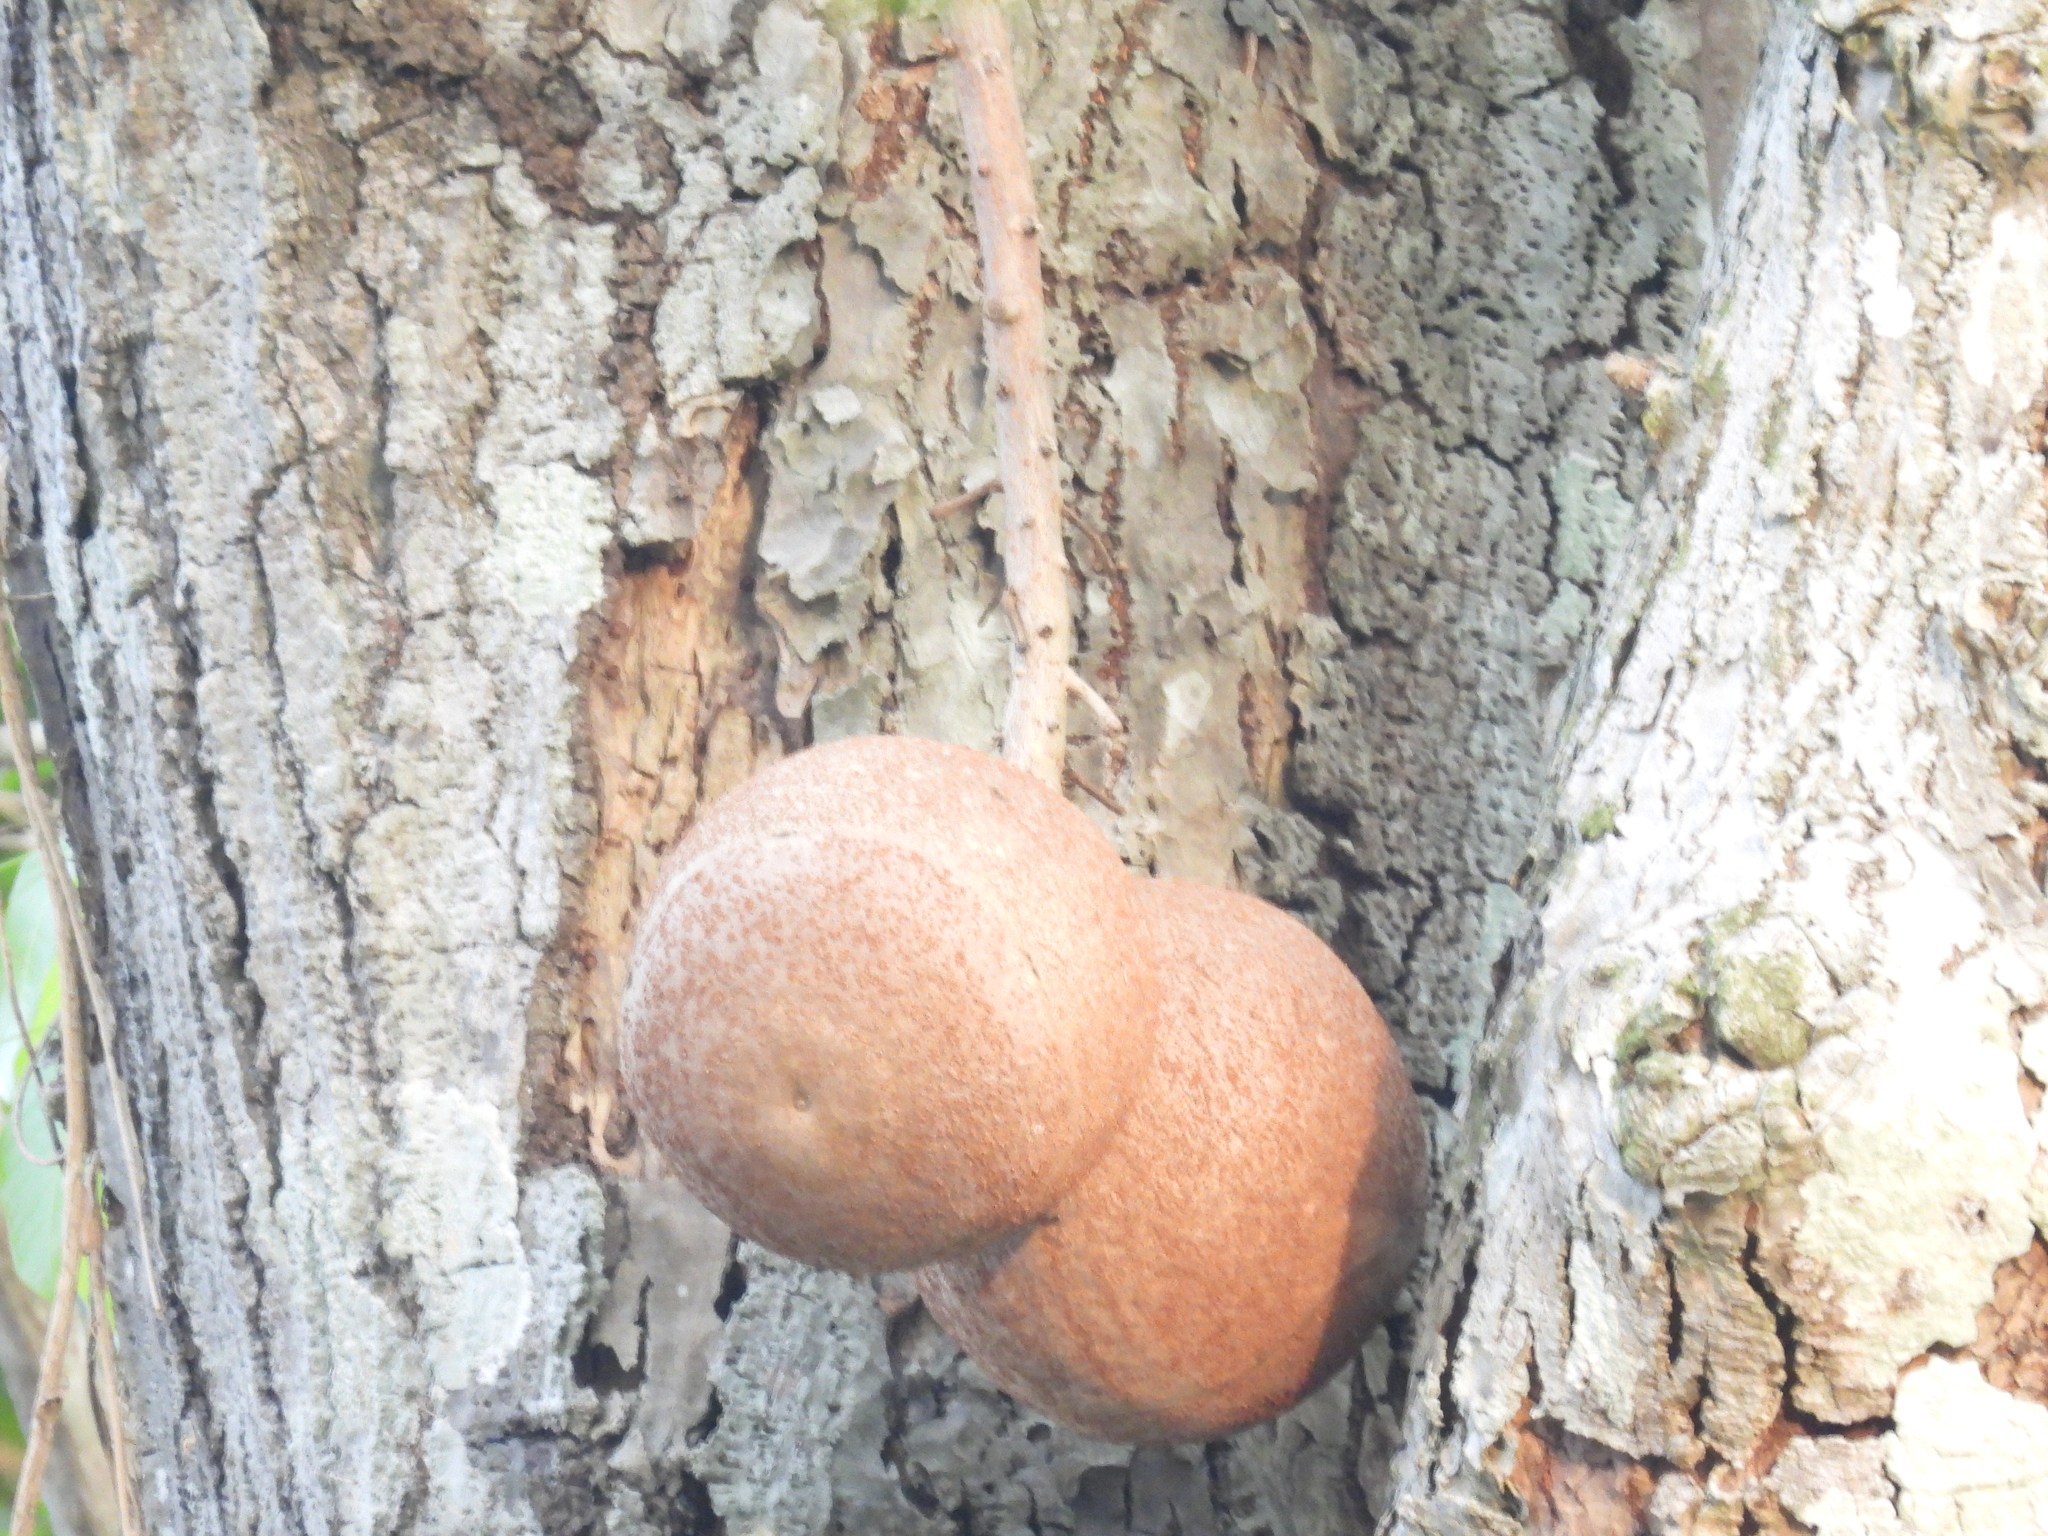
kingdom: Plantae
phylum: Tracheophyta
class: Magnoliopsida
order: Ericales
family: Lecythidaceae
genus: Couroupita
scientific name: Couroupita guianensis
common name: Cannonball tree
